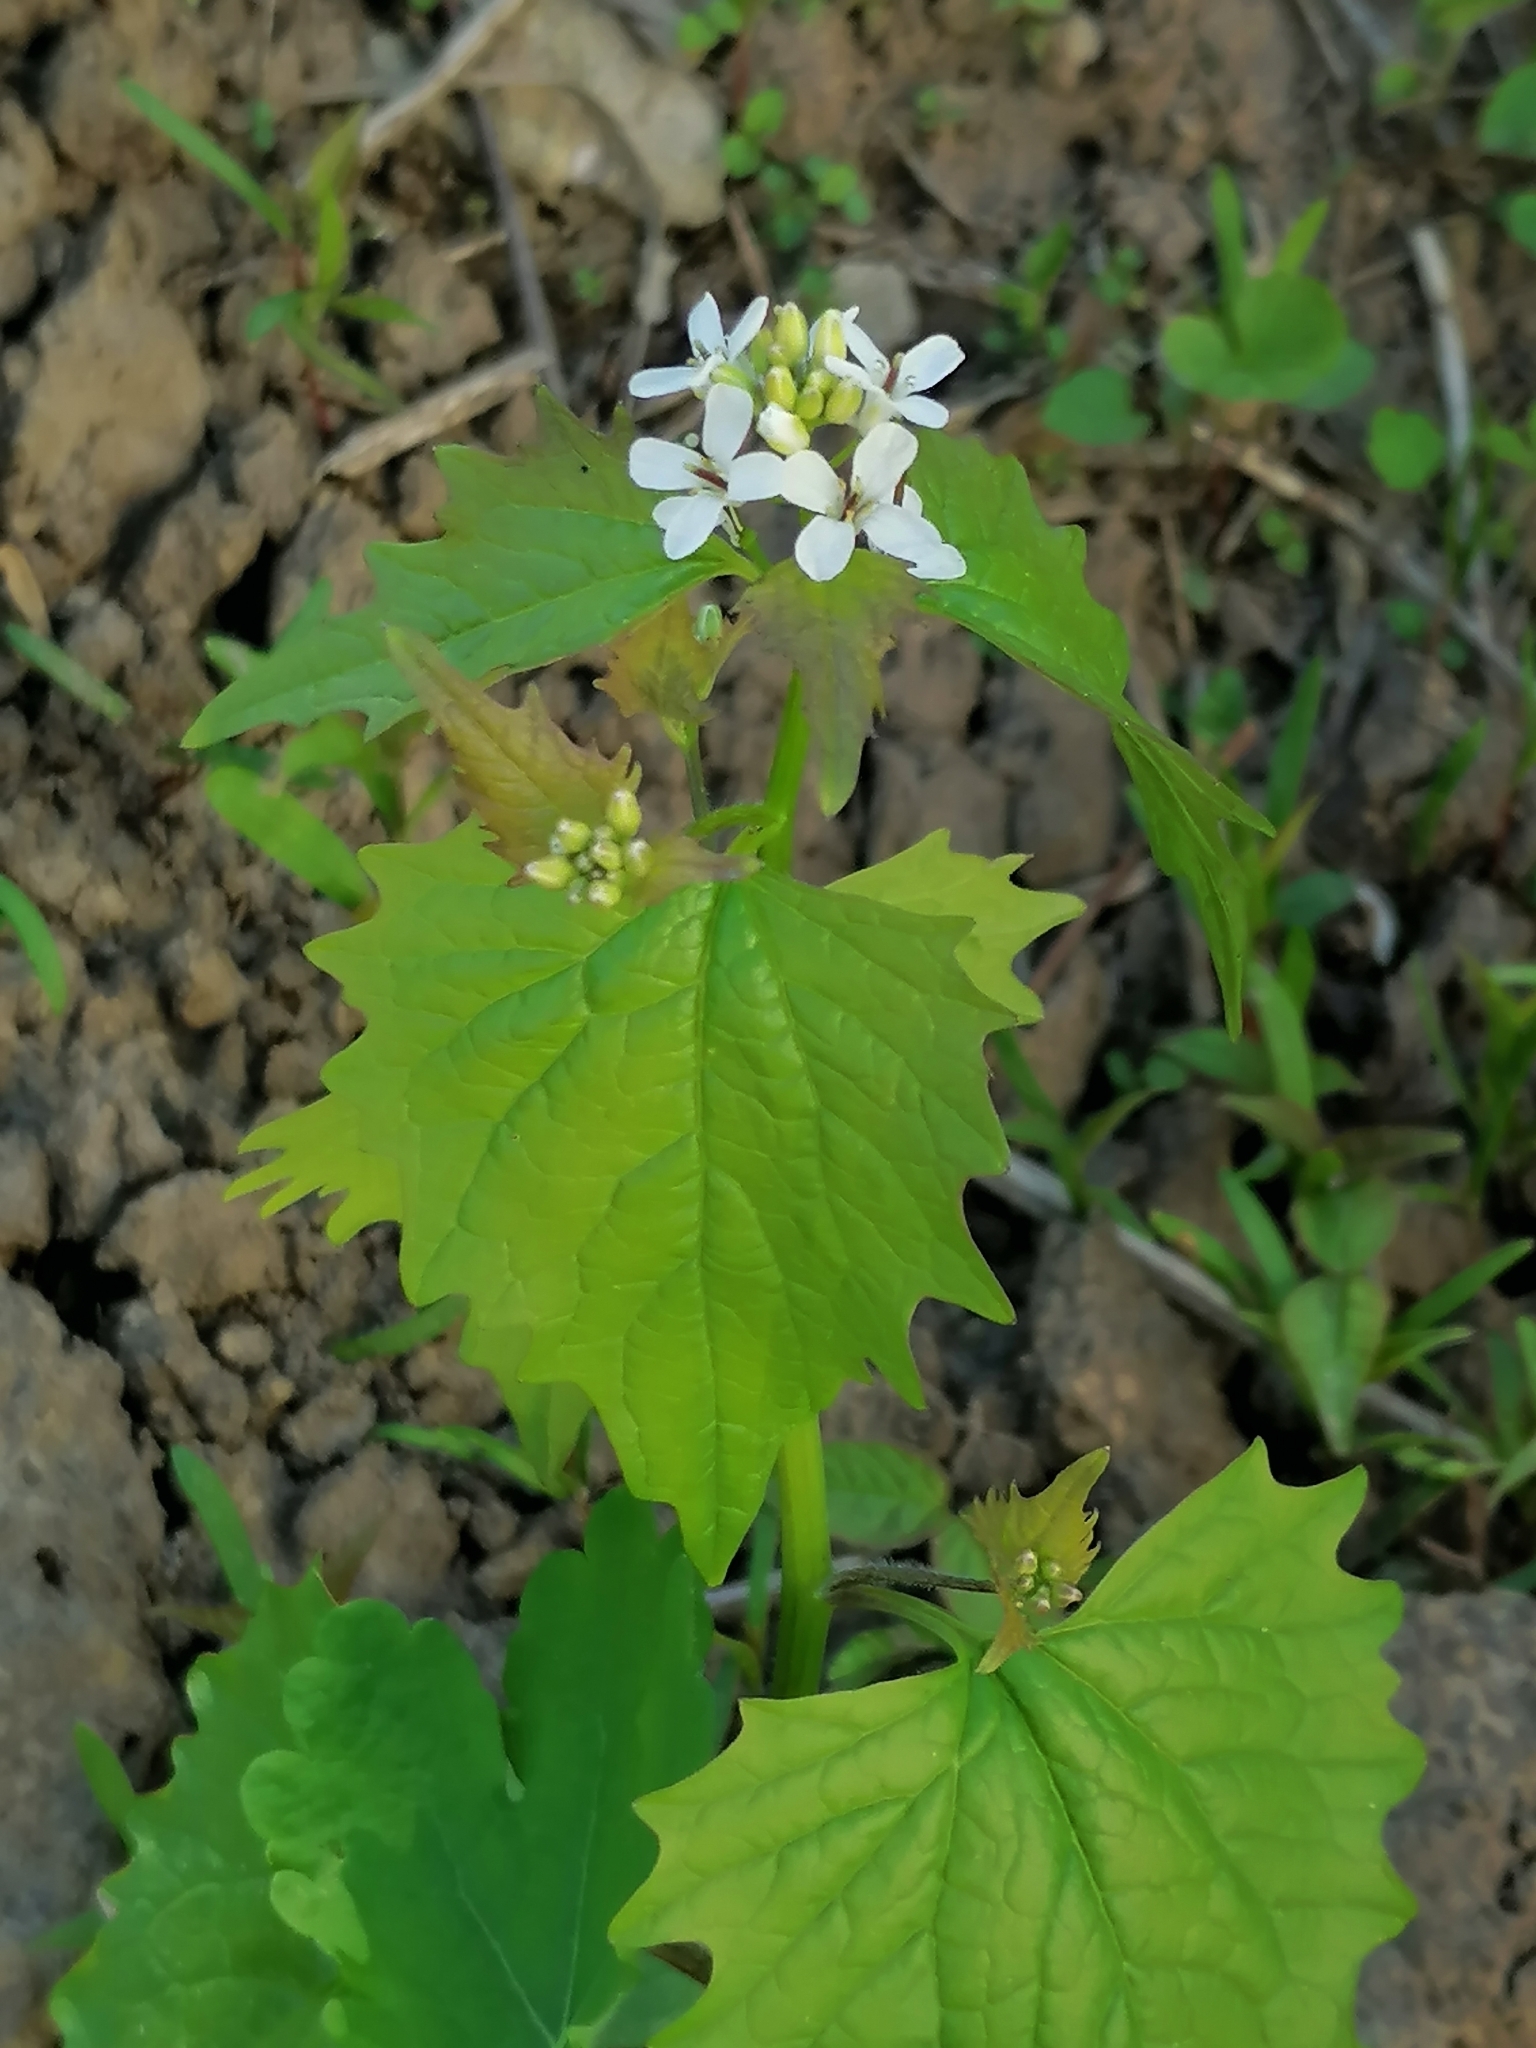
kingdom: Plantae
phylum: Tracheophyta
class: Magnoliopsida
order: Brassicales
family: Brassicaceae
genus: Alliaria
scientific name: Alliaria petiolata
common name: Garlic mustard
